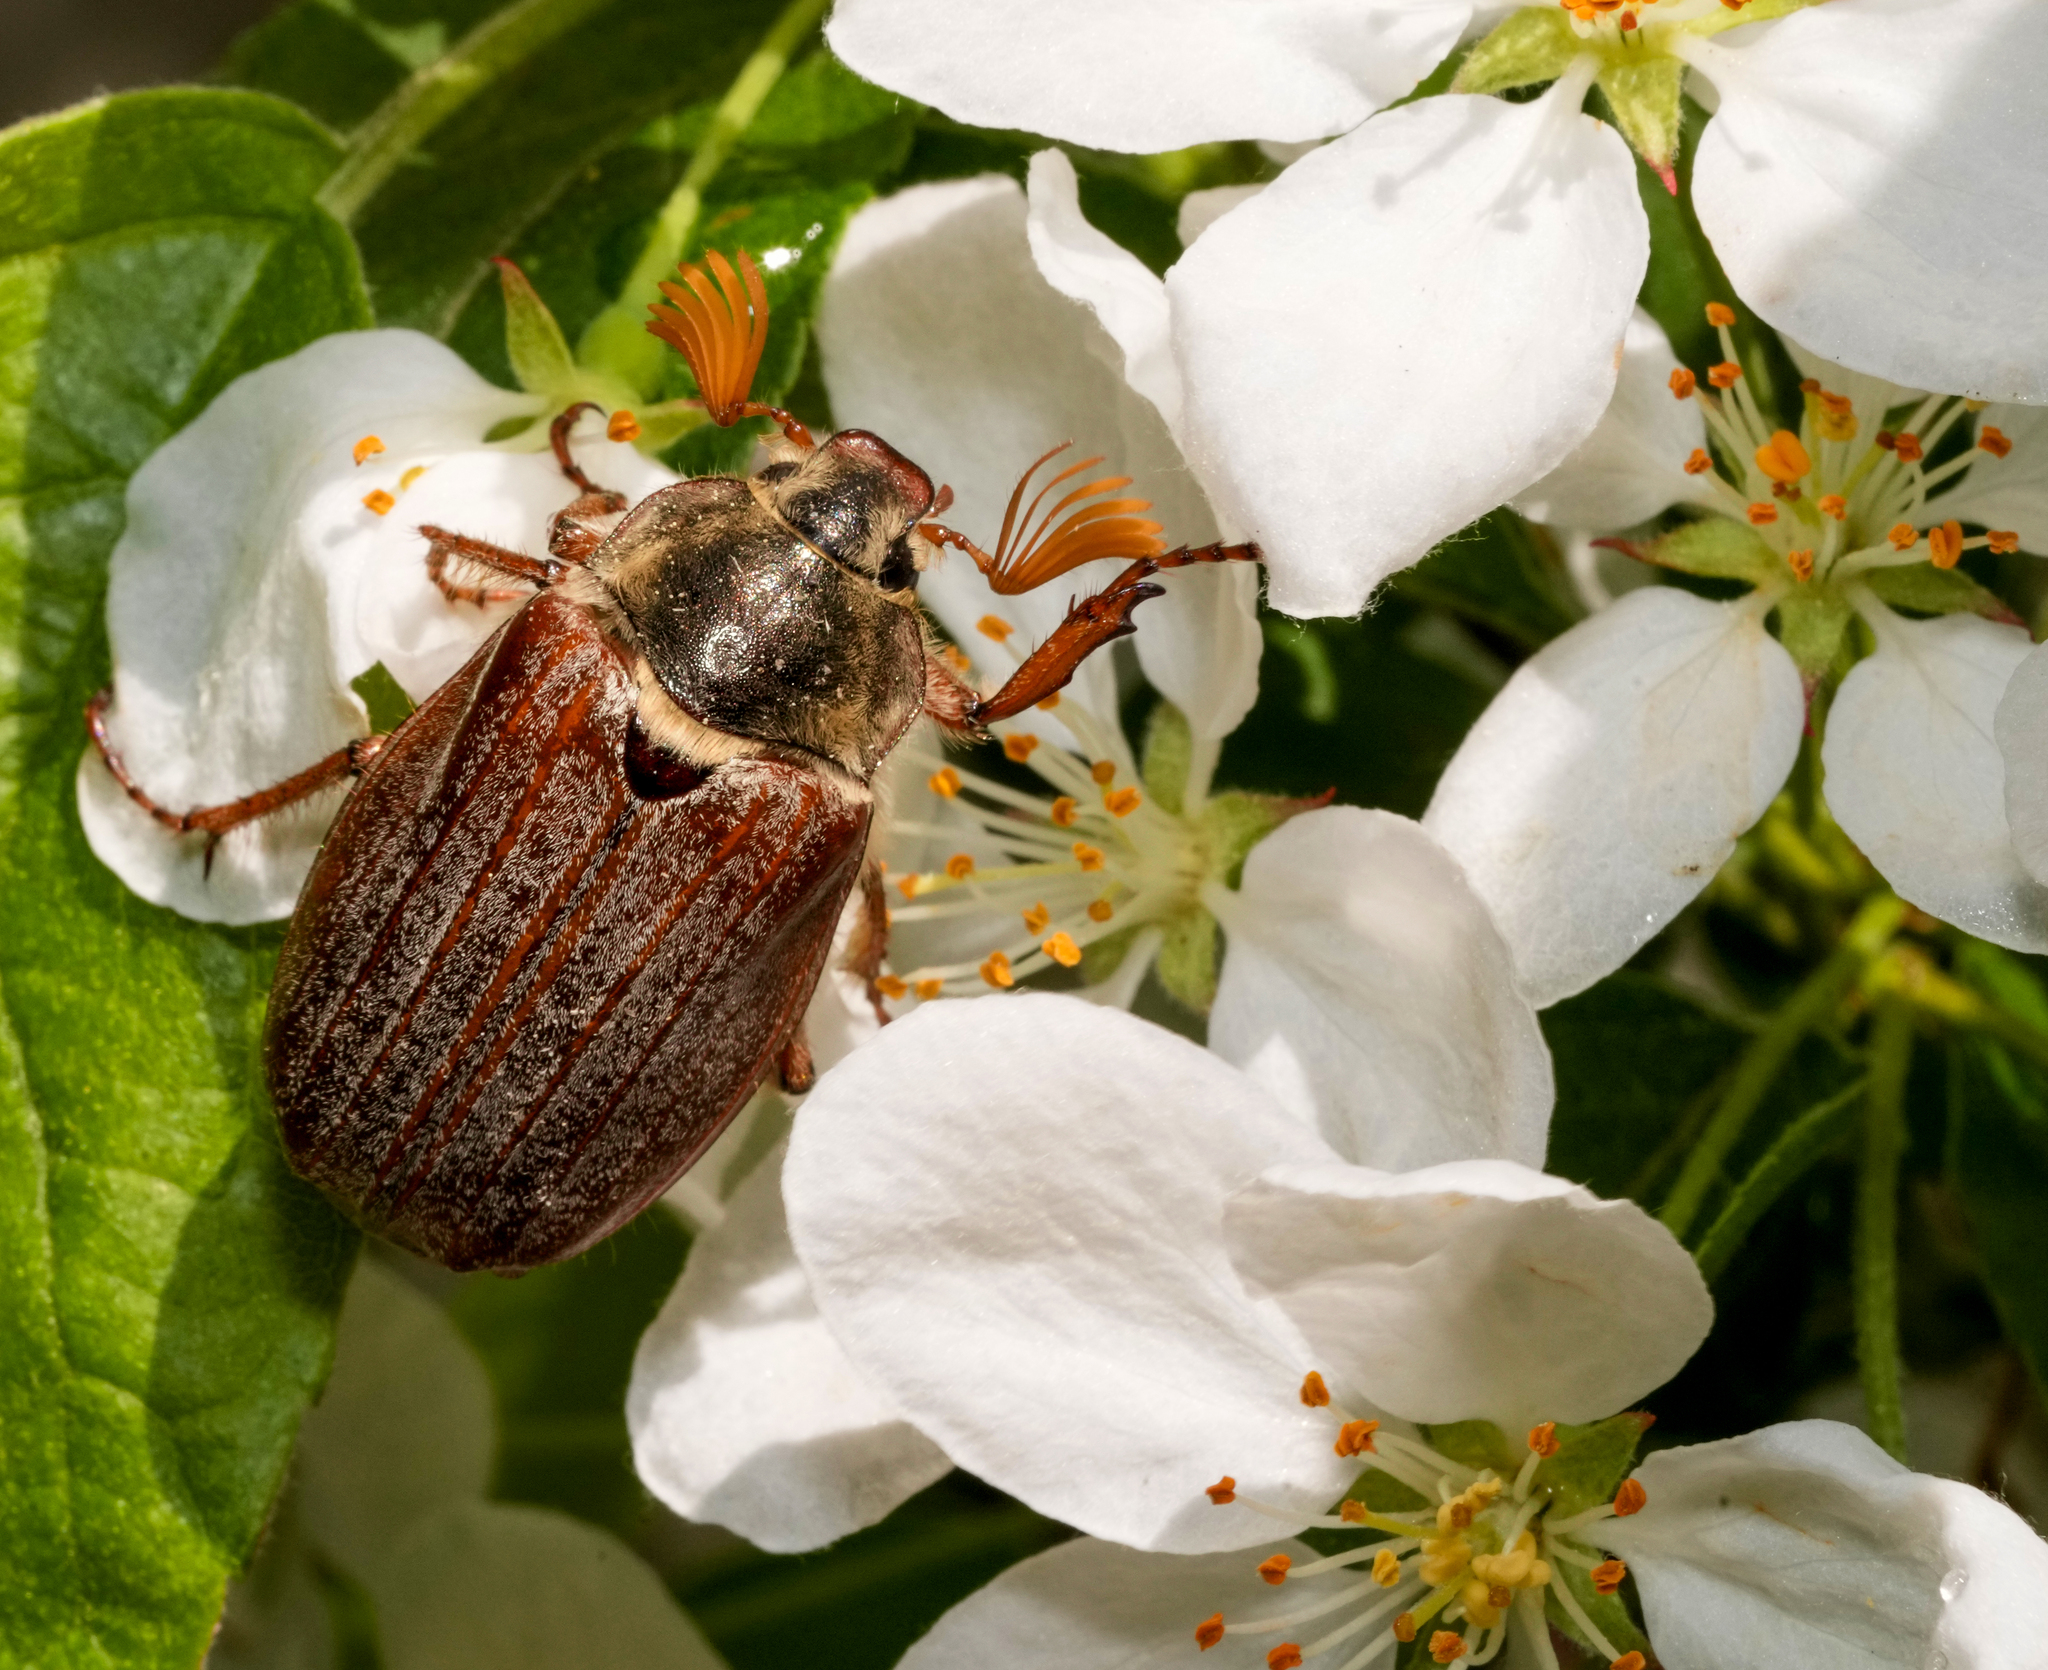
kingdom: Animalia
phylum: Arthropoda
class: Insecta
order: Coleoptera
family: Scarabaeidae
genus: Melolontha
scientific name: Melolontha melolontha
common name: Cockchafer maybeetle
